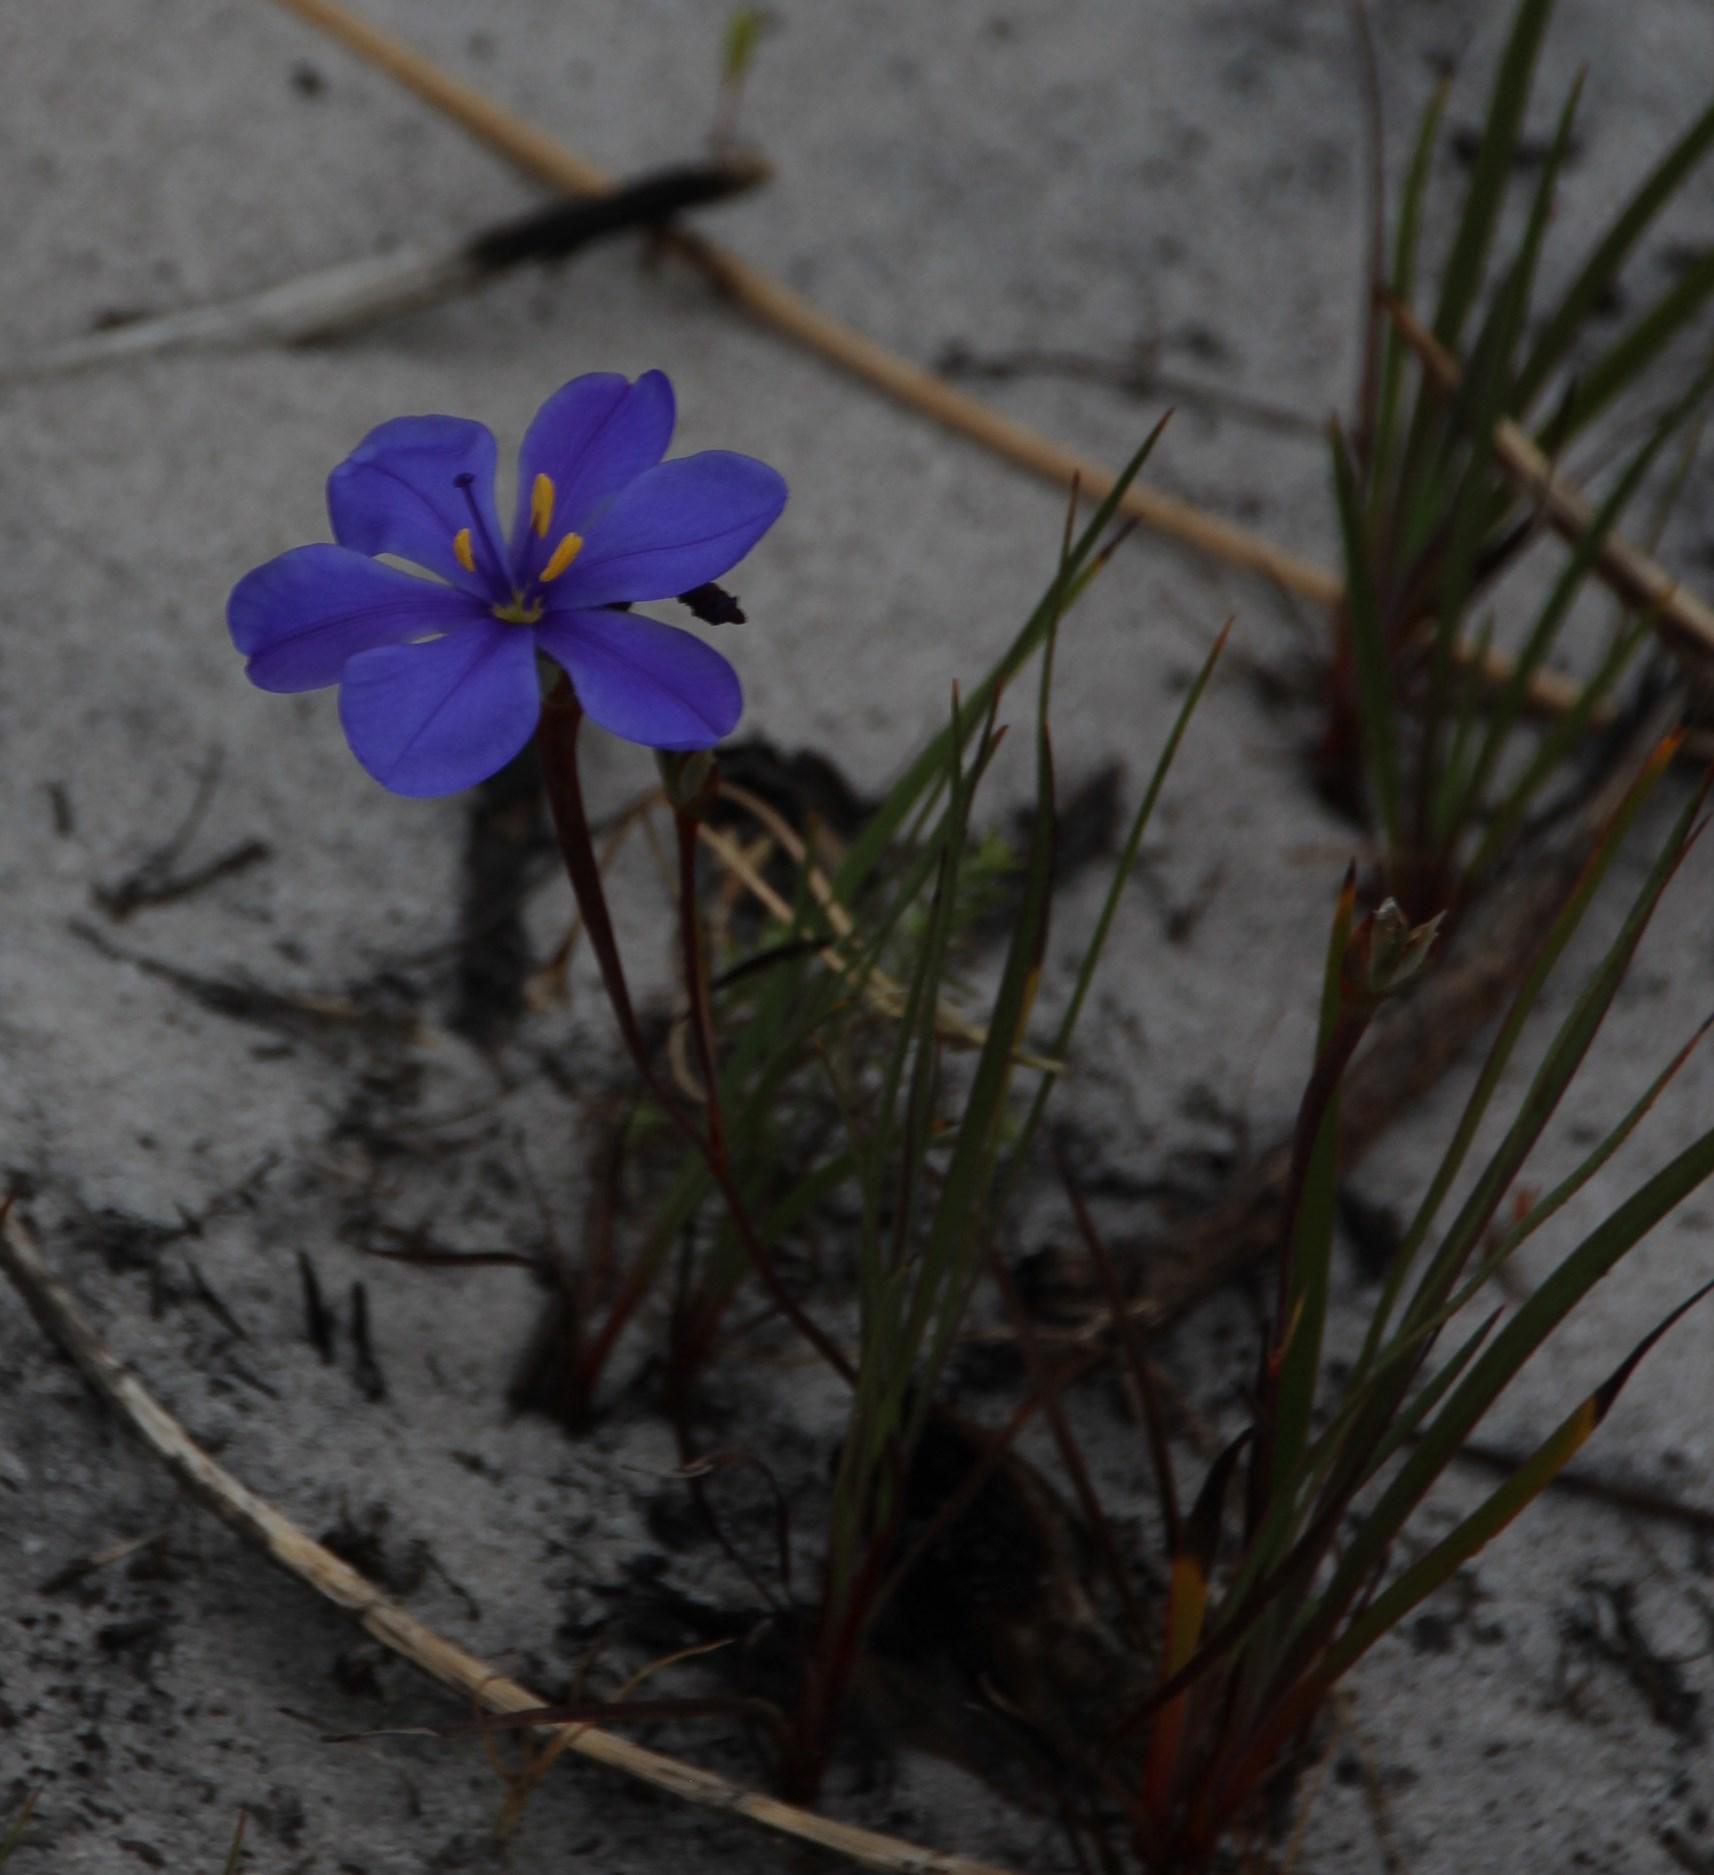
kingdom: Plantae
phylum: Tracheophyta
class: Liliopsida
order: Asparagales
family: Iridaceae
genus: Aristea
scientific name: Aristea africana
